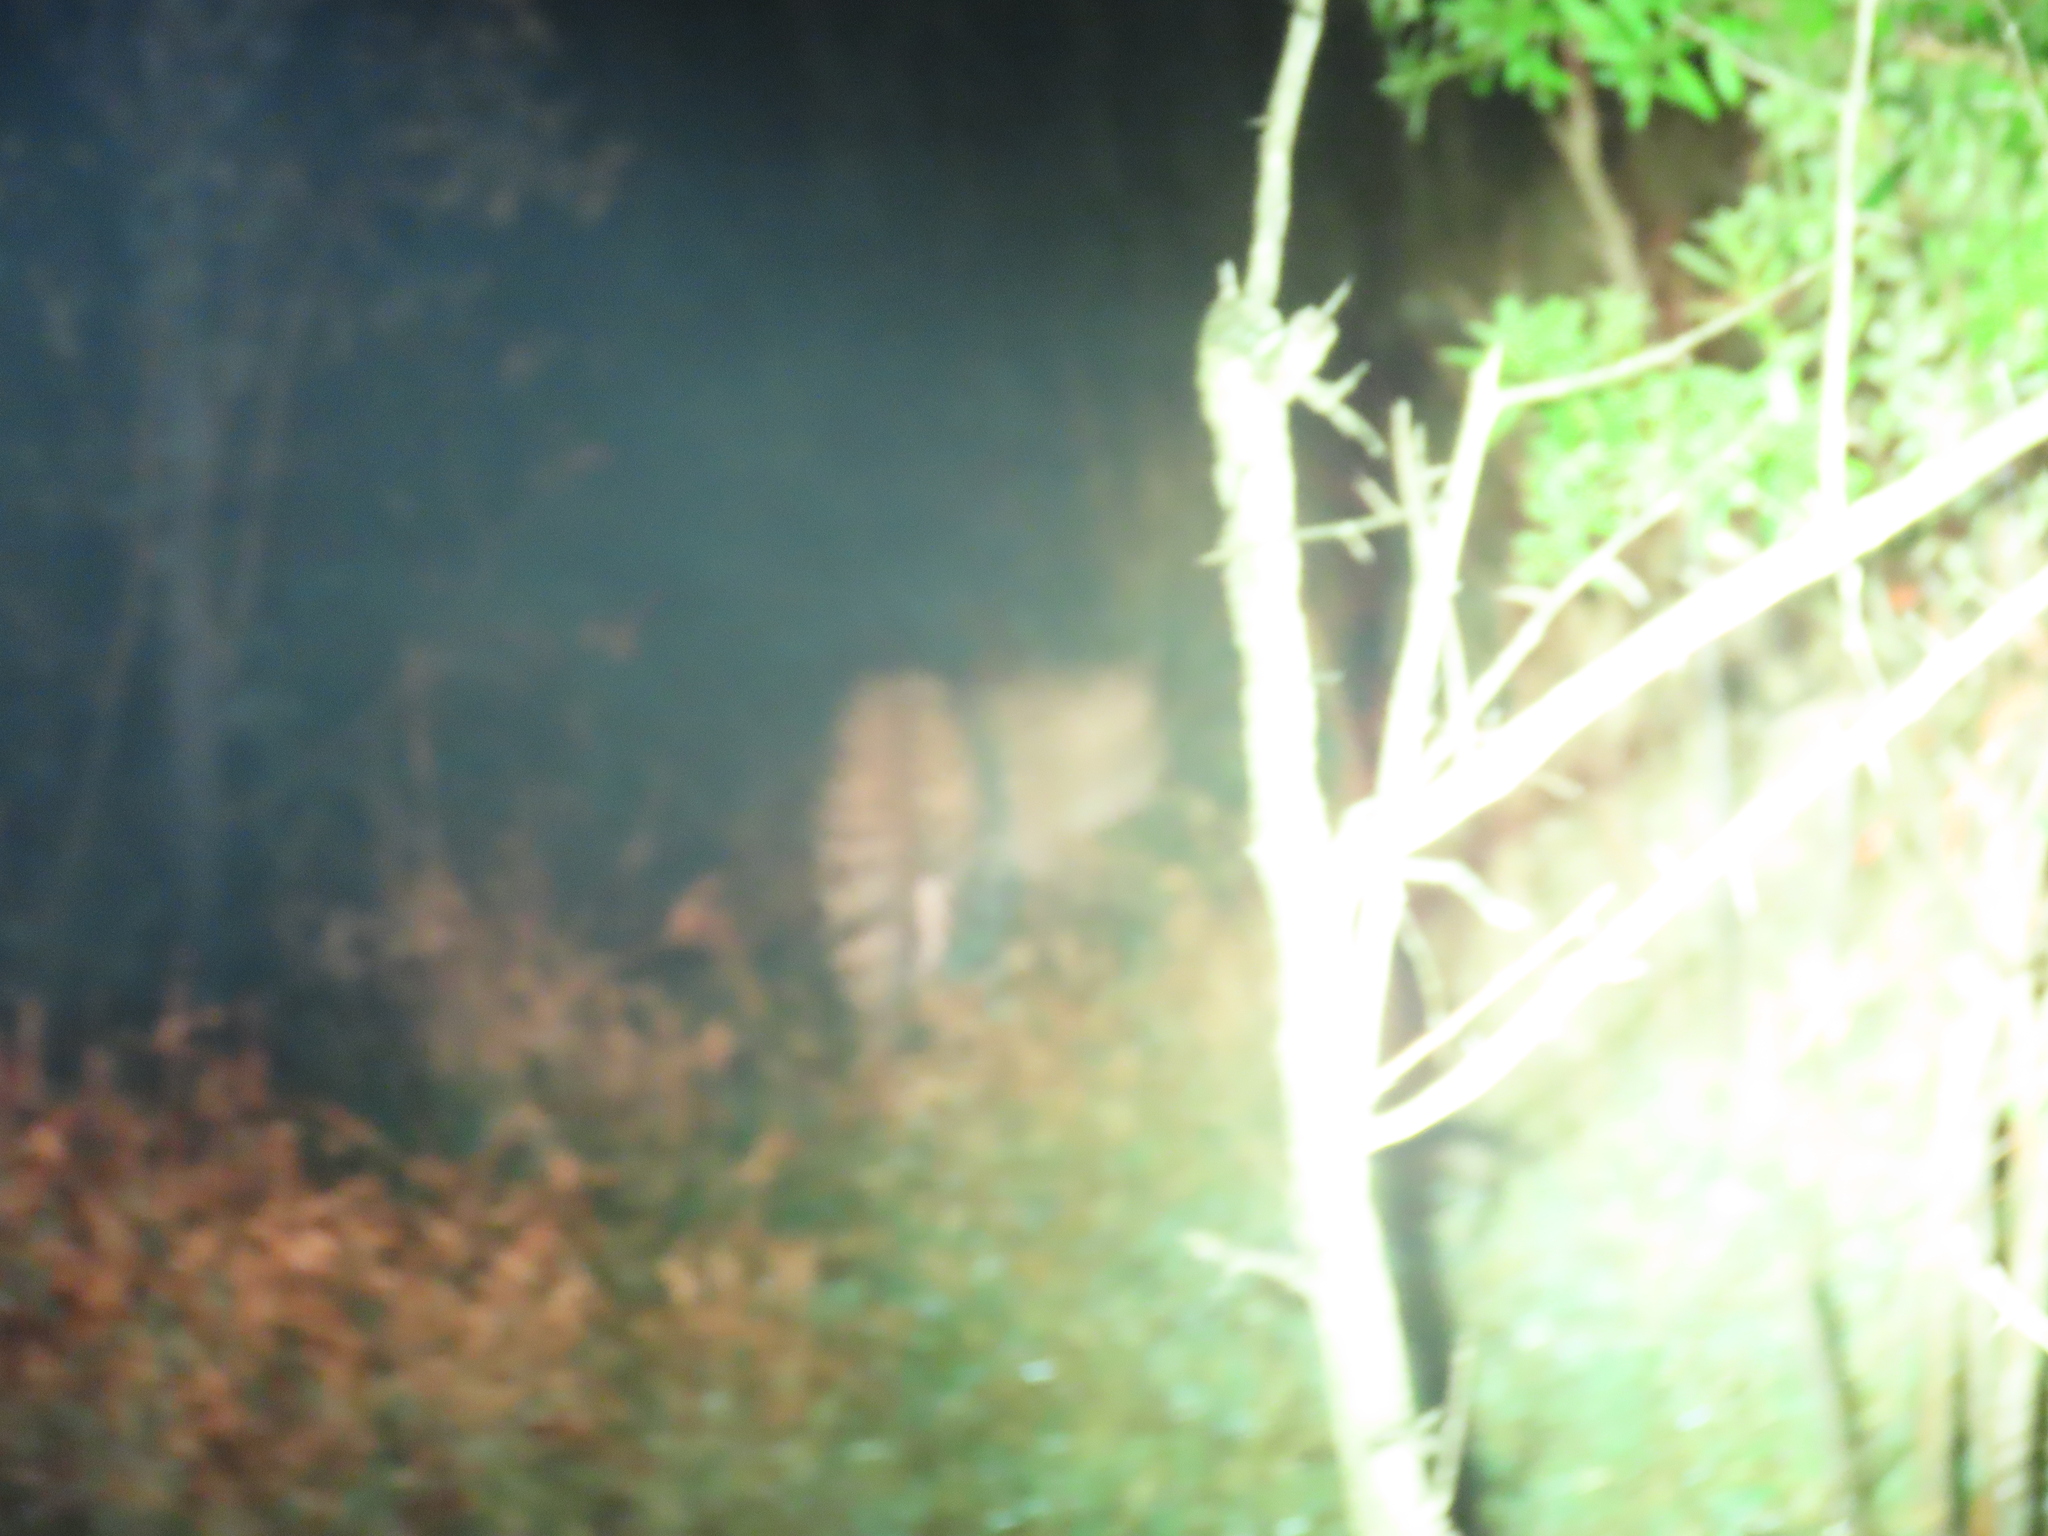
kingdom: Animalia
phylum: Chordata
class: Mammalia
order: Carnivora
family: Felidae
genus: Panthera
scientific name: Panthera pardus
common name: Leopard
